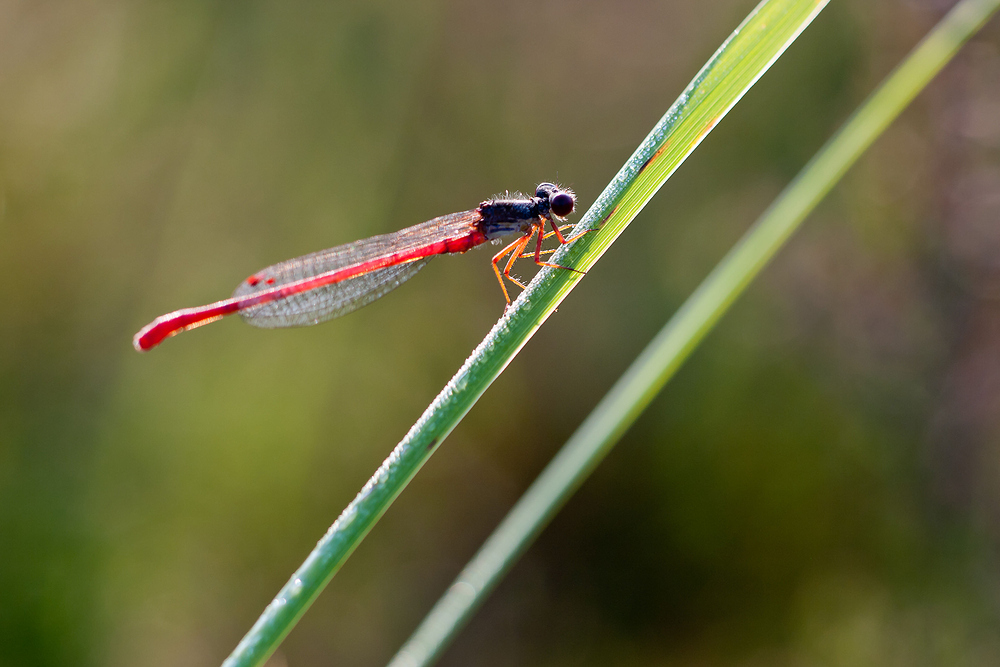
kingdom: Animalia
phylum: Arthropoda
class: Insecta
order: Odonata
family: Coenagrionidae
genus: Ceriagrion
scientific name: Ceriagrion tenellum
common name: Small red damselfly
